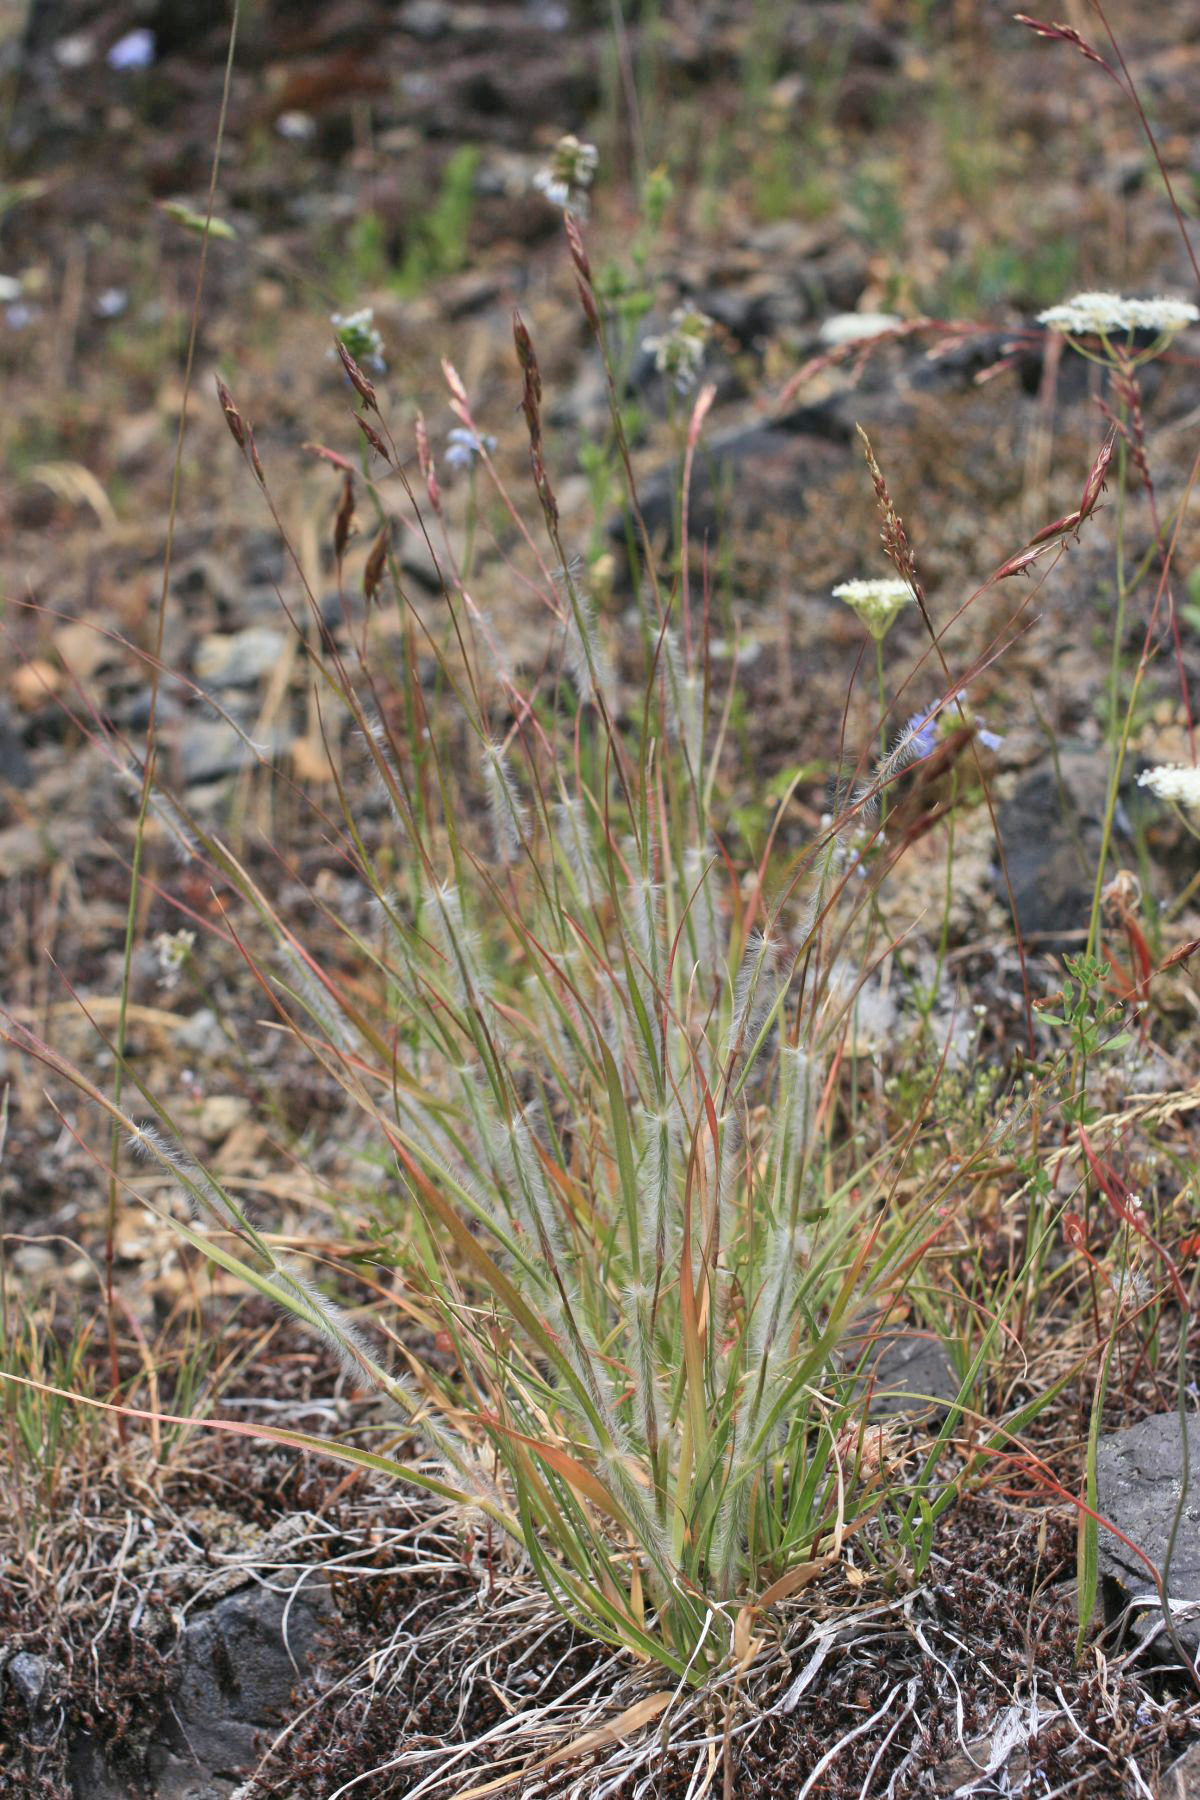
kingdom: Plantae
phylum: Tracheophyta
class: Liliopsida
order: Poales
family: Poaceae
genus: Danthonia
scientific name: Danthonia unispicata
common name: Few-flowered oatgrass
